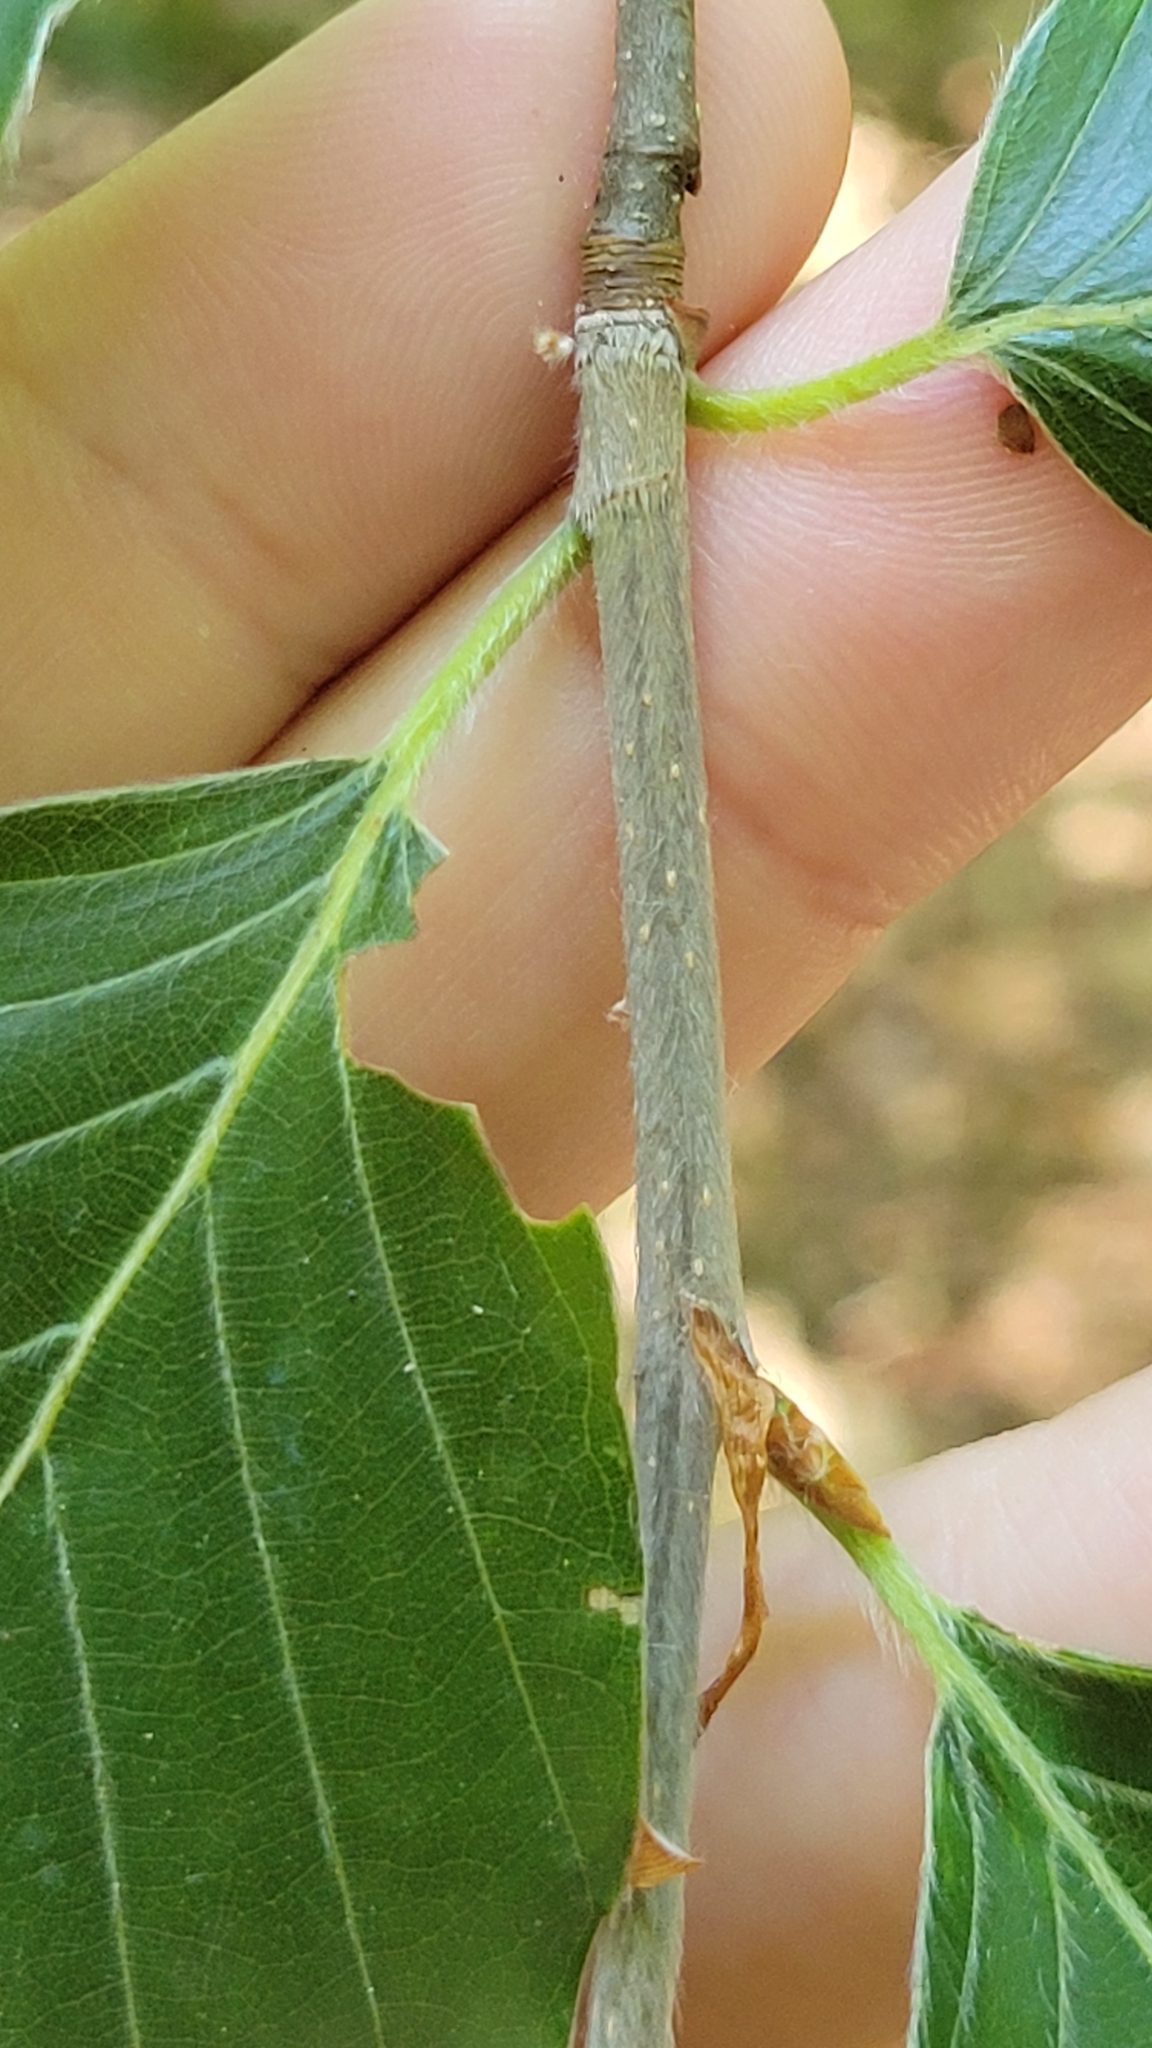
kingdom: Plantae
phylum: Tracheophyta
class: Magnoliopsida
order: Fagales
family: Fagaceae
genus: Fagus
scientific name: Fagus sylvatica
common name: Beech
